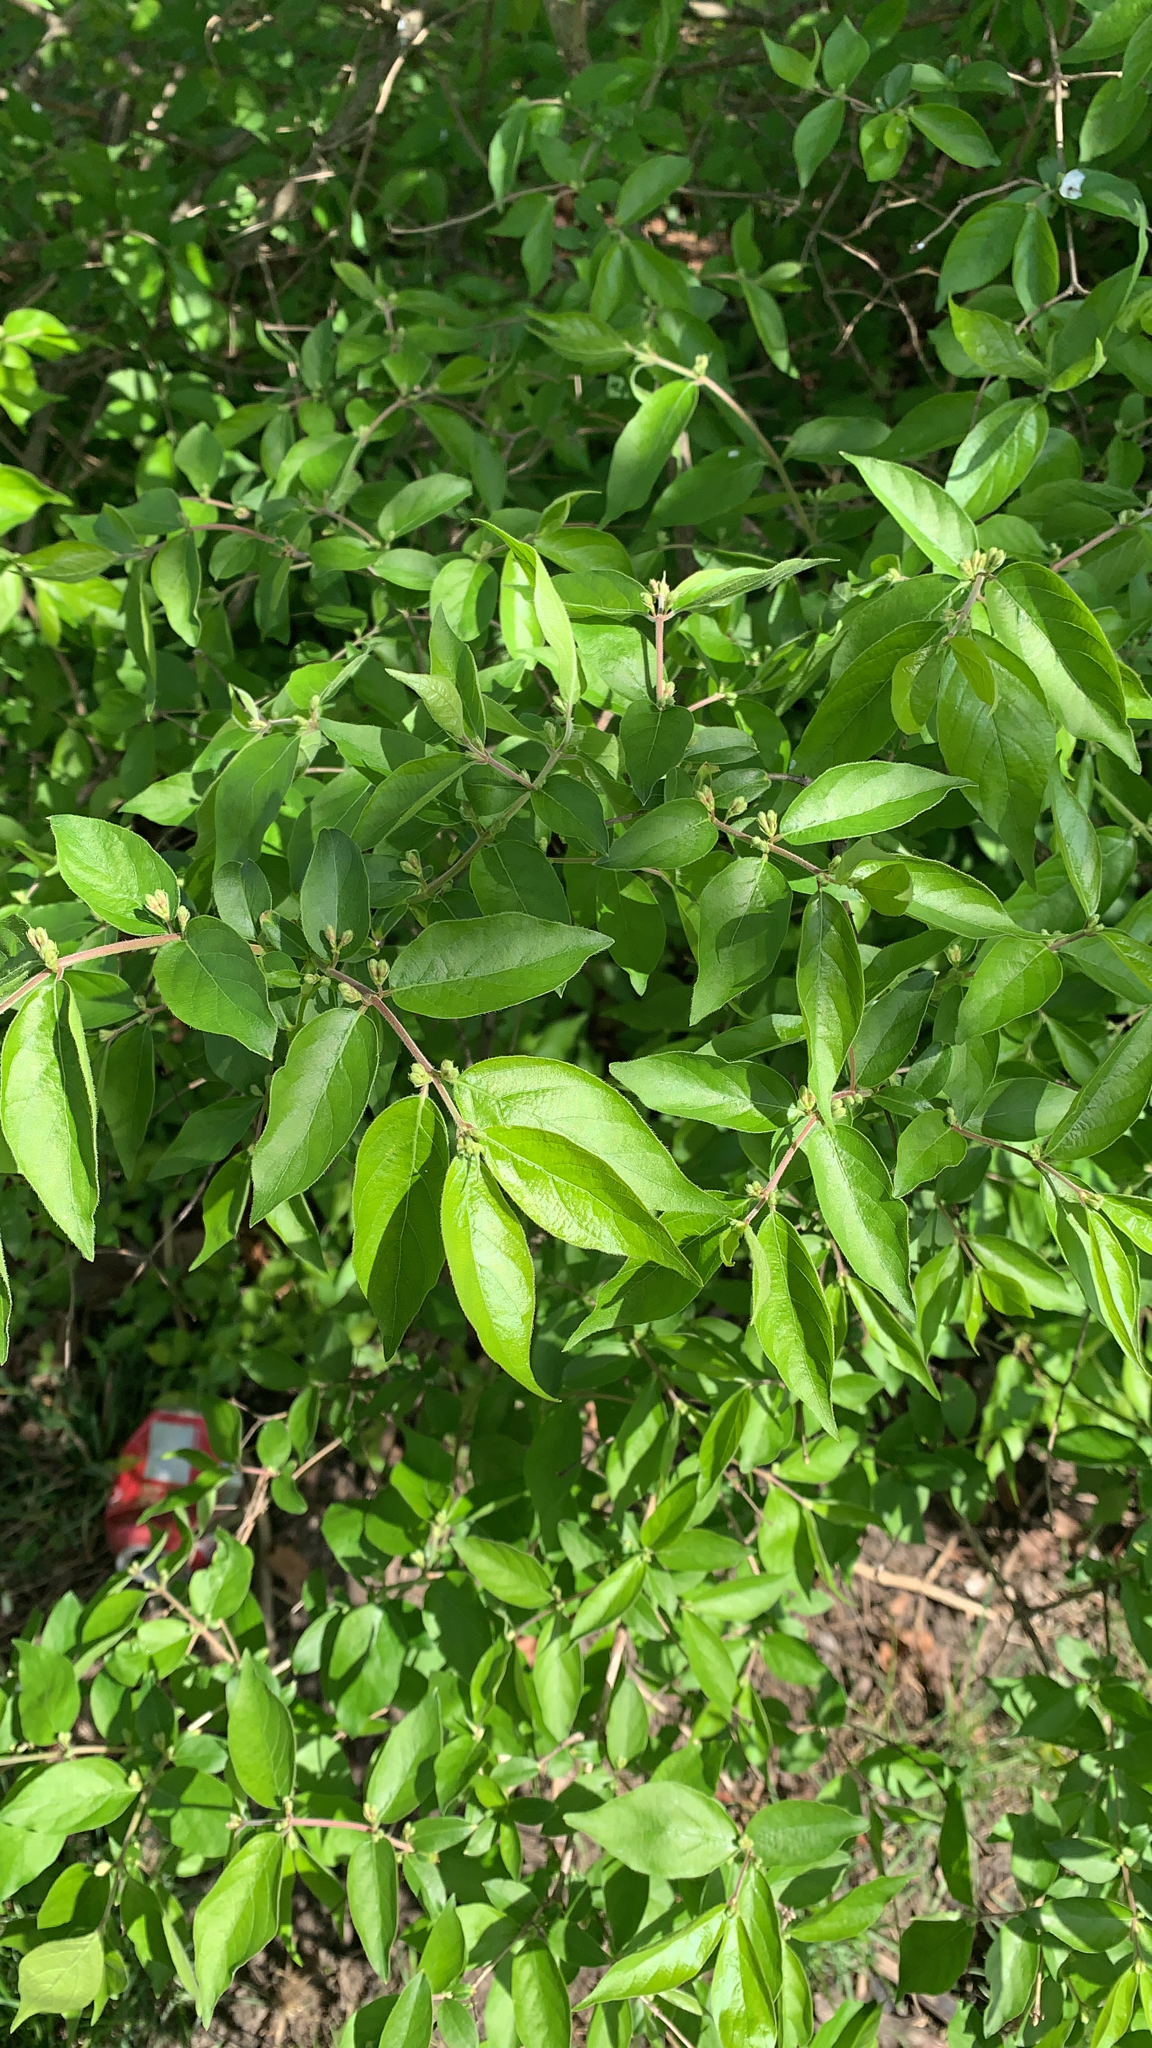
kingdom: Plantae
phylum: Tracheophyta
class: Magnoliopsida
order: Dipsacales
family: Caprifoliaceae
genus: Lonicera
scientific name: Lonicera maackii
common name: Amur honeysuckle
